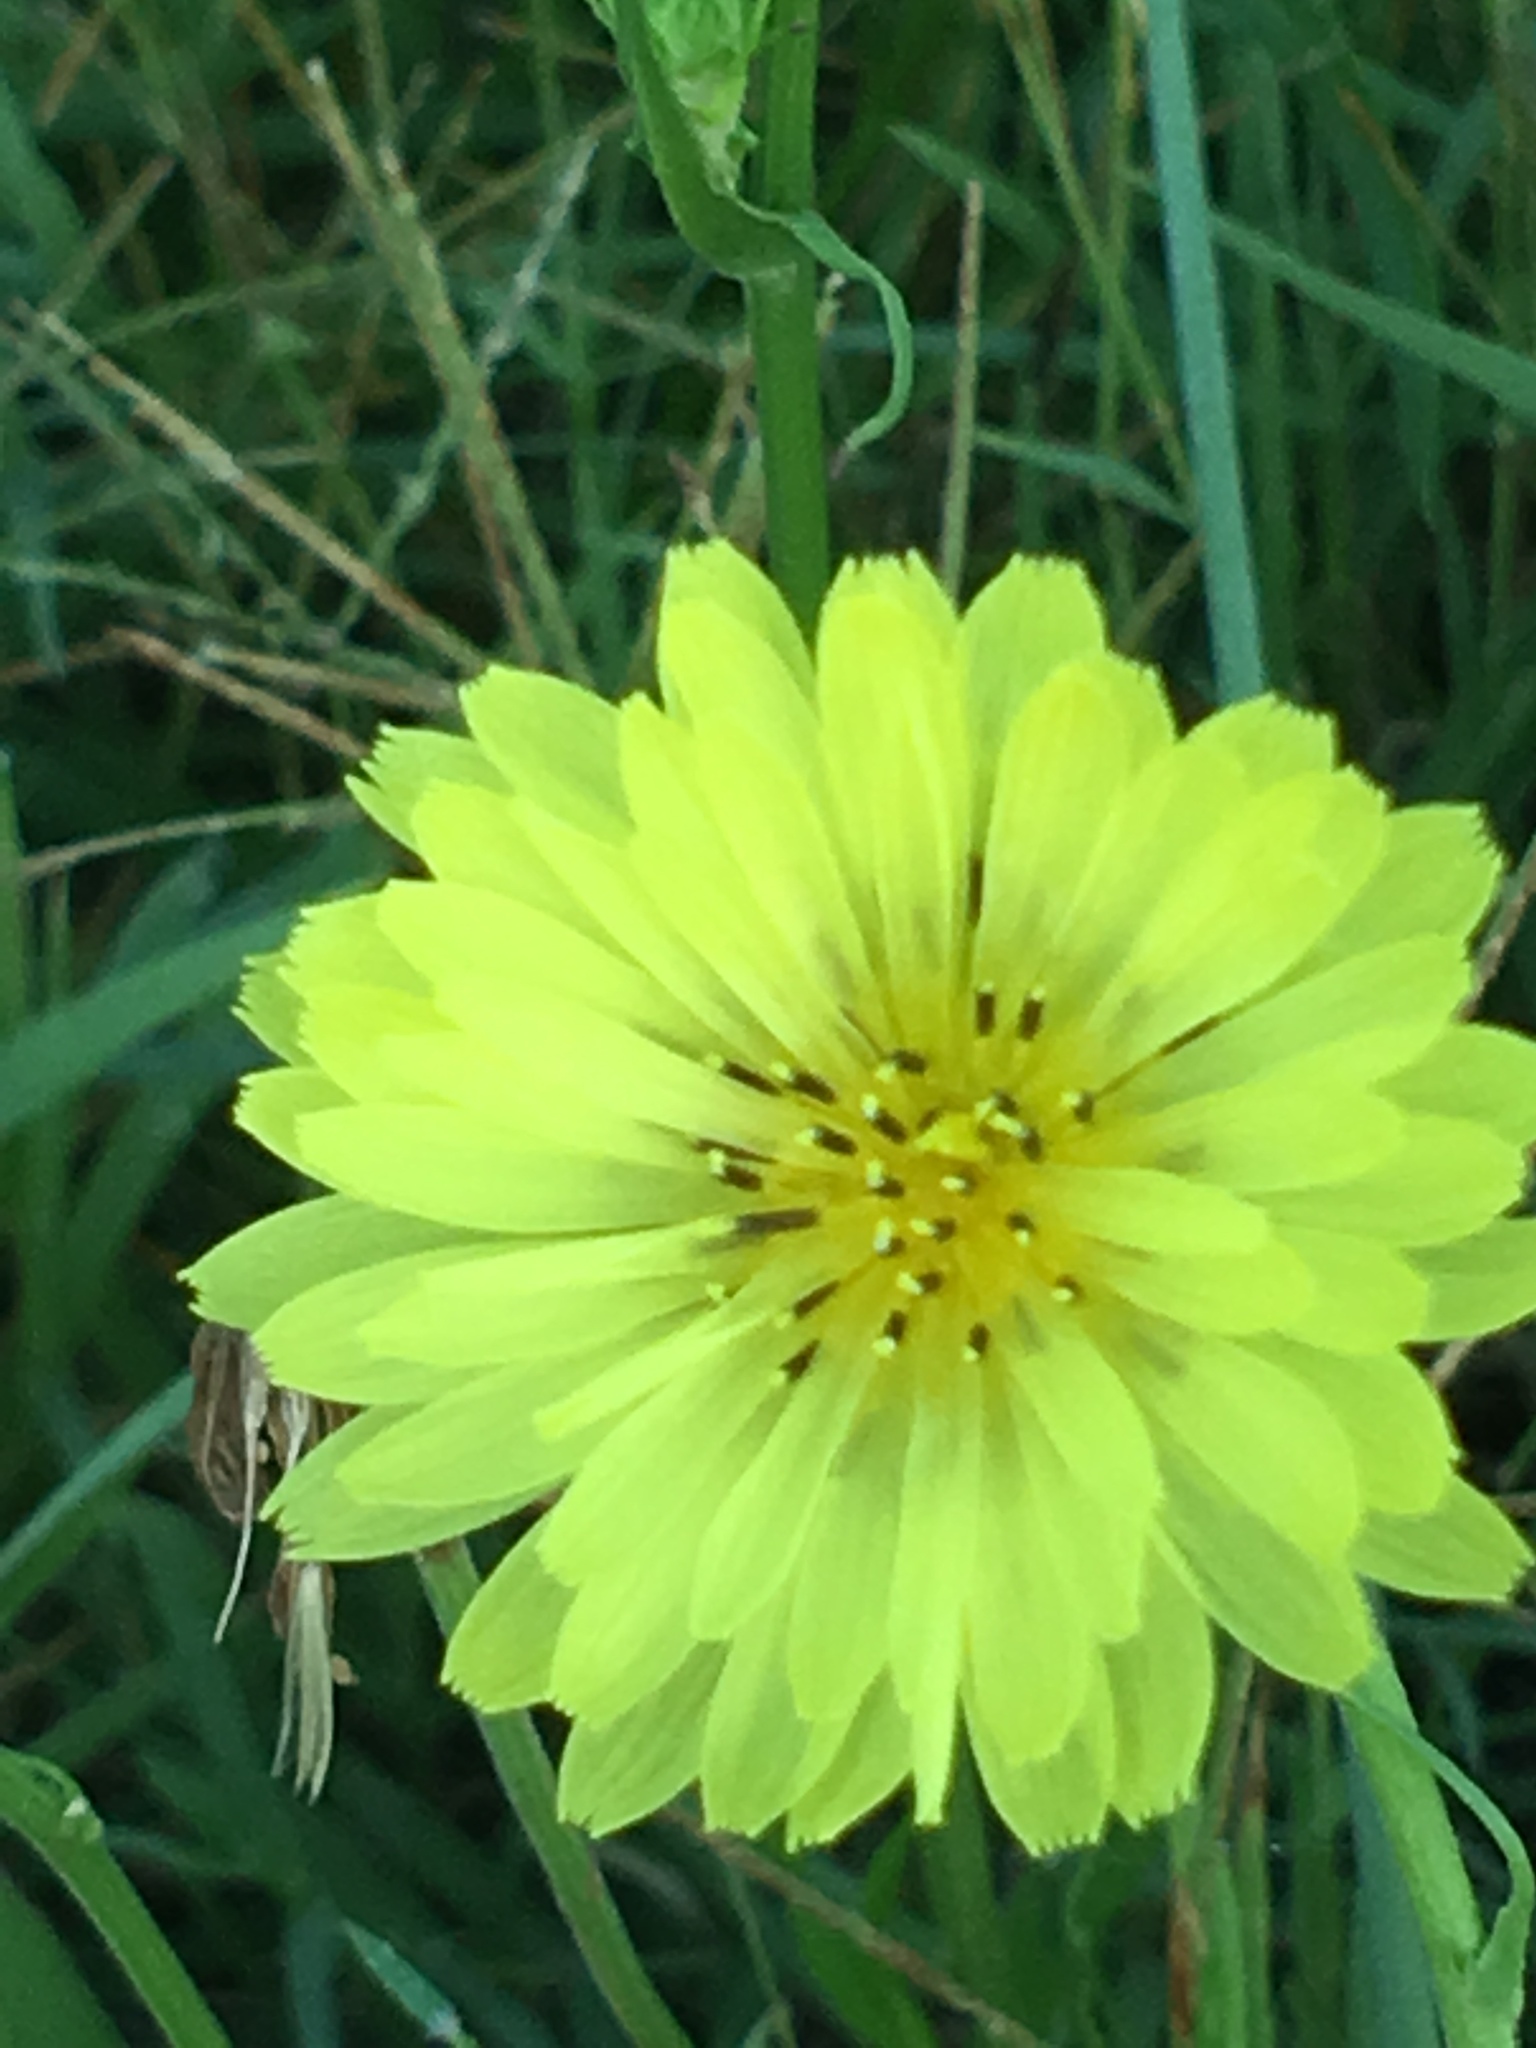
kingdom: Plantae
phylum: Tracheophyta
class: Magnoliopsida
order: Asterales
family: Asteraceae
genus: Pyrrhopappus
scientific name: Pyrrhopappus carolinianus
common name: Carolina desert-chicory
